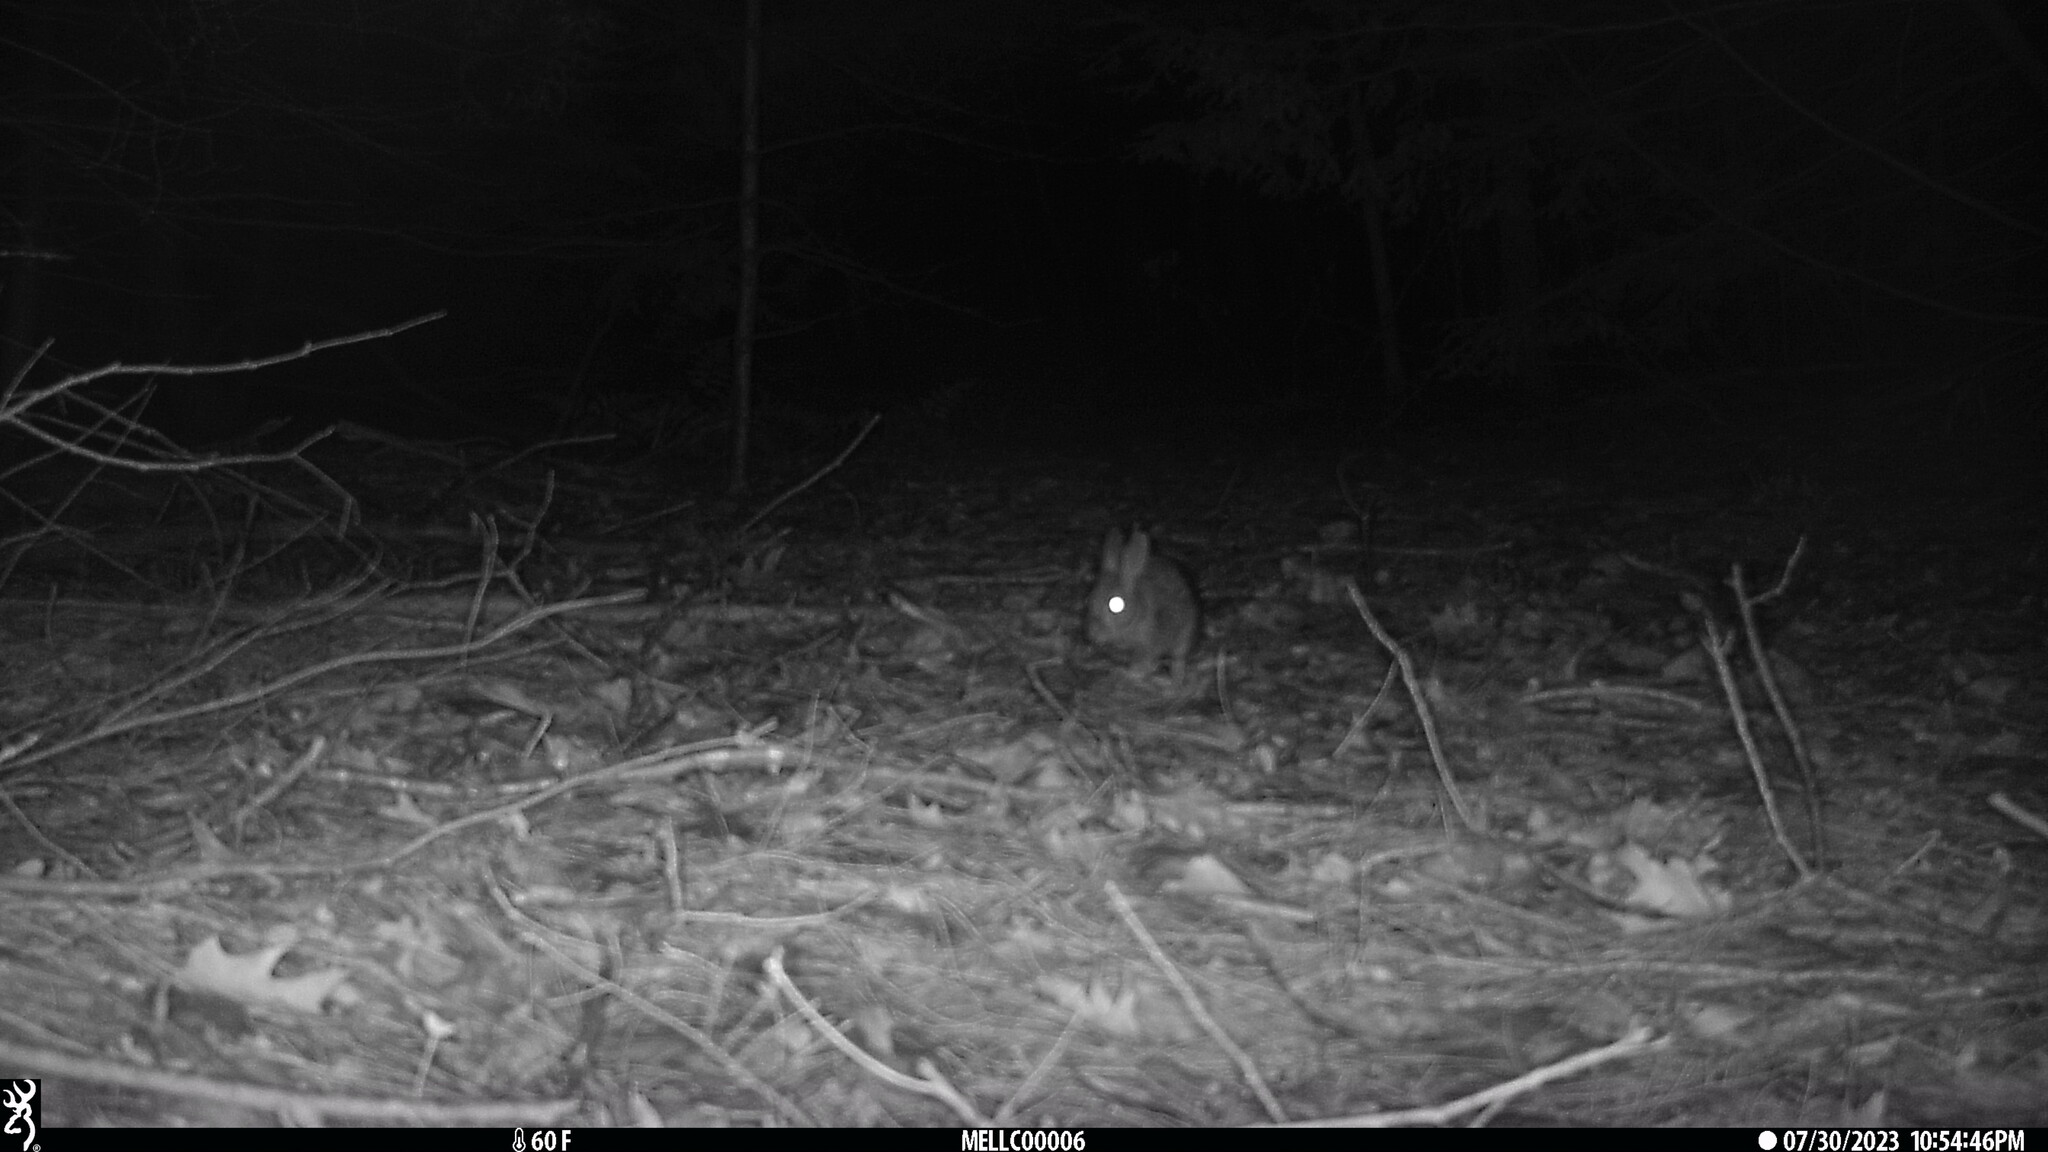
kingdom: Animalia
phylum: Chordata
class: Mammalia
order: Lagomorpha
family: Leporidae
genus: Sylvilagus
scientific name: Sylvilagus floridanus
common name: Eastern cottontail
